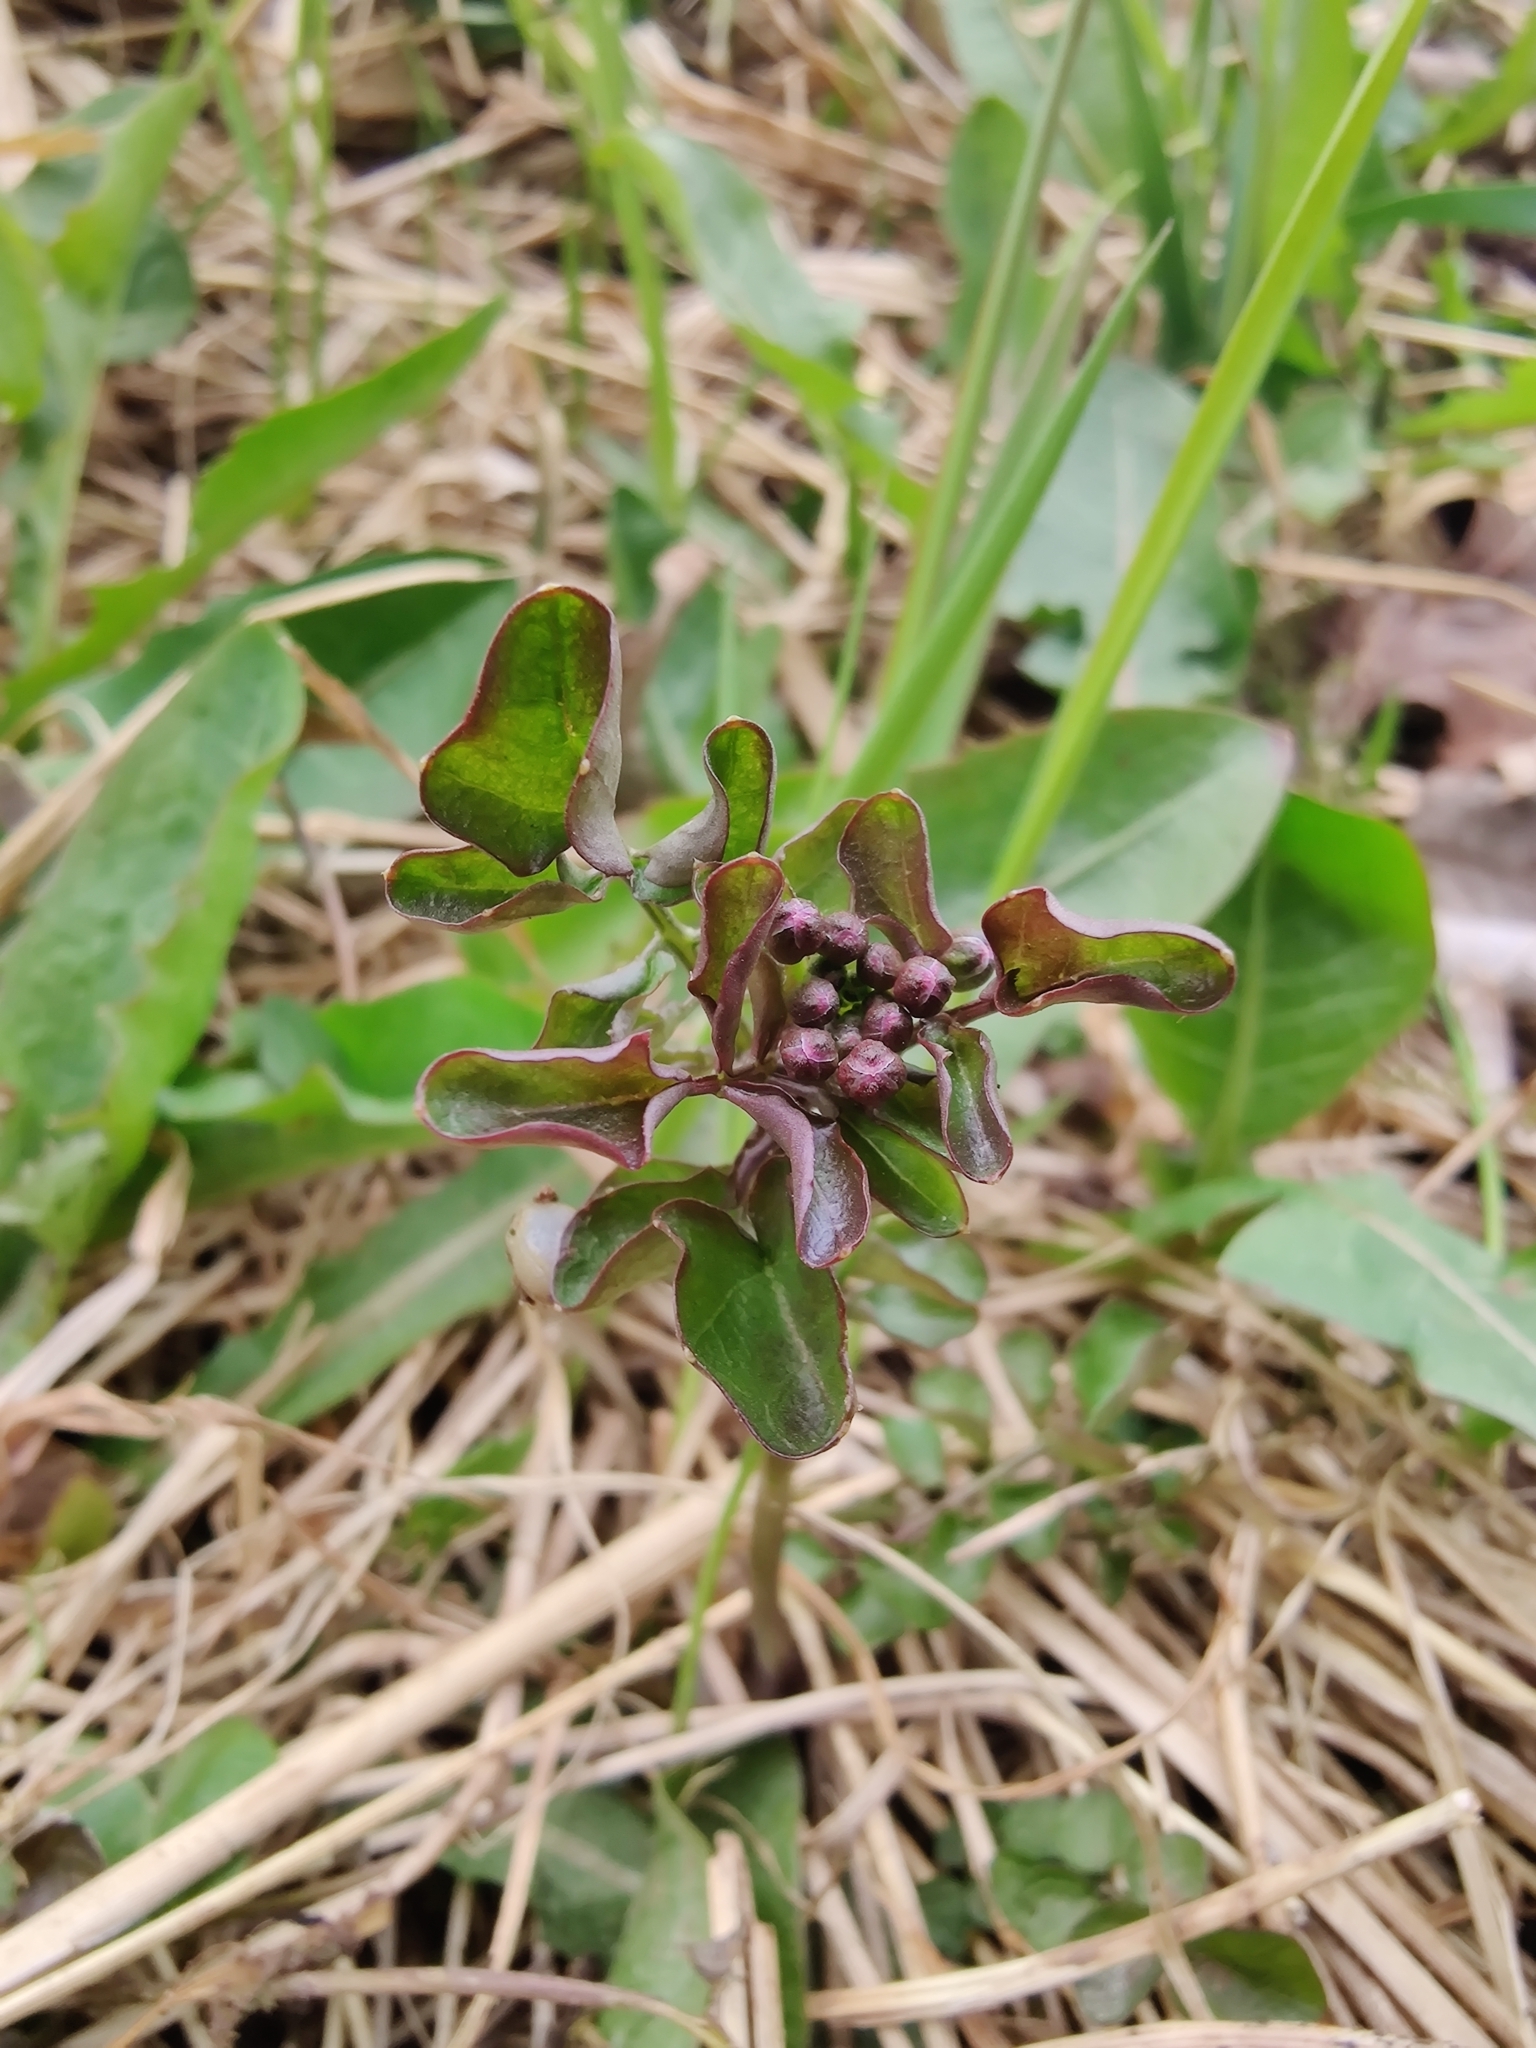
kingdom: Plantae
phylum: Tracheophyta
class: Magnoliopsida
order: Brassicales
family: Brassicaceae
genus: Cardamine
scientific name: Cardamine pratensis
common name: Cuckoo flower
